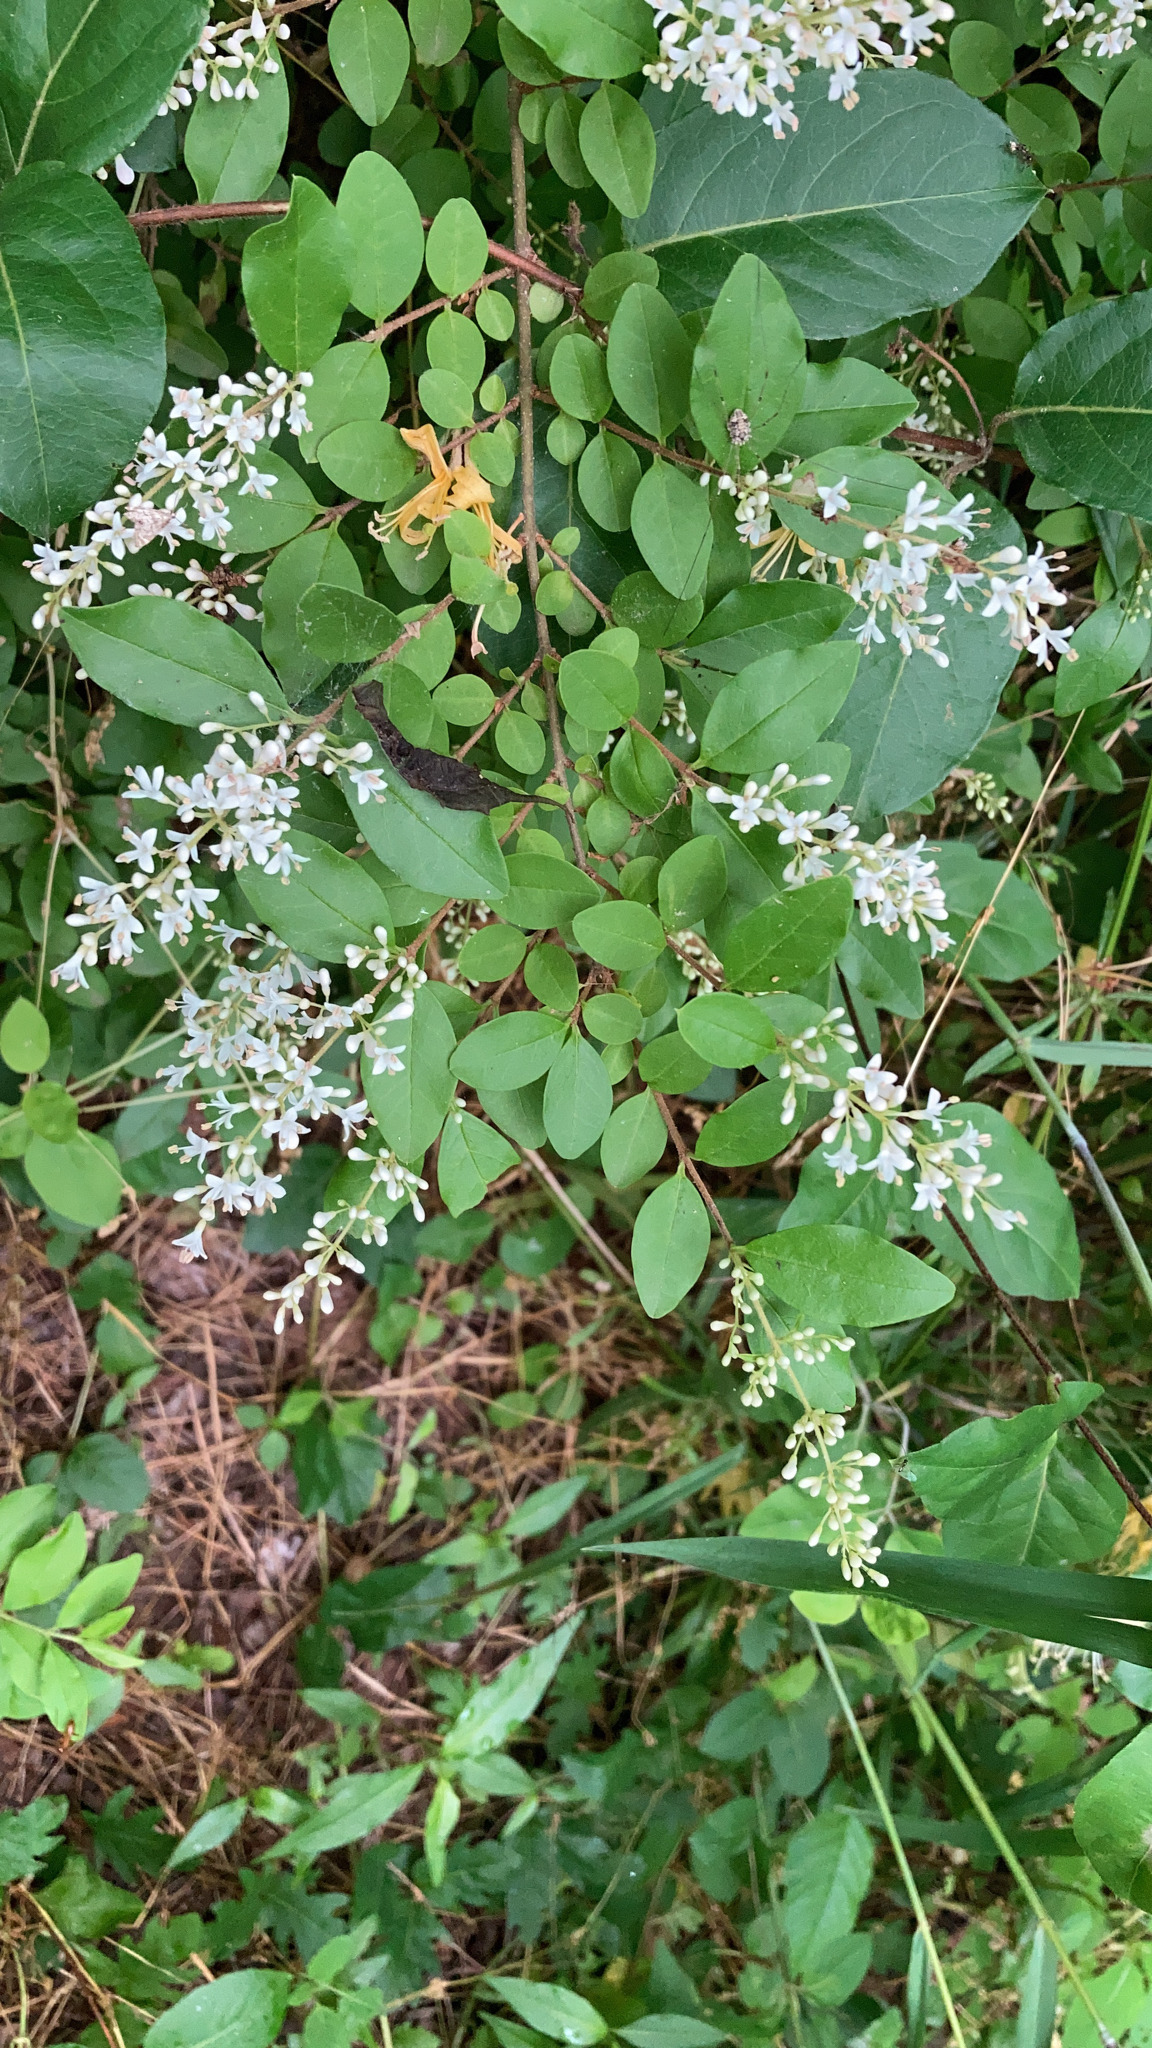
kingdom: Plantae
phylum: Tracheophyta
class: Magnoliopsida
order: Lamiales
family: Oleaceae
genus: Ligustrum
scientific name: Ligustrum sinense
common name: Chinese privet
